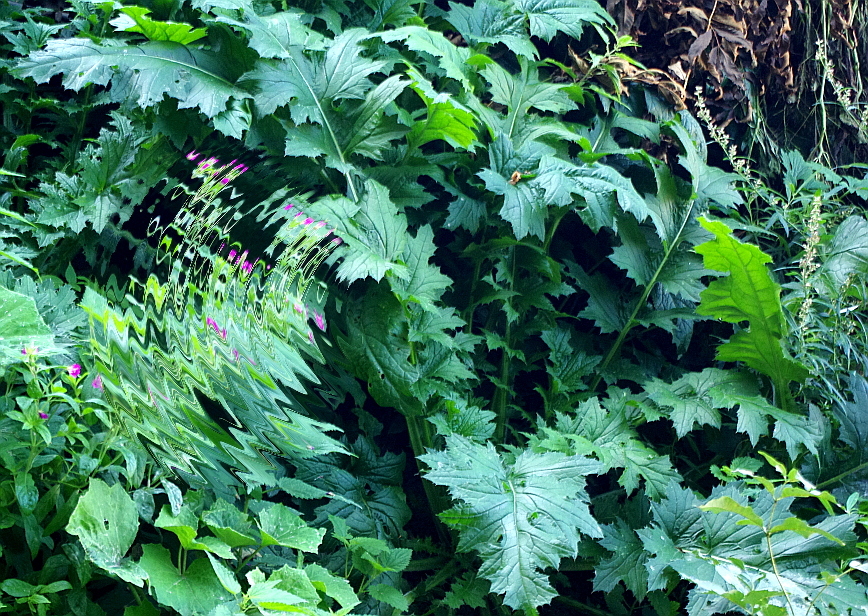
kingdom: Plantae
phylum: Tracheophyta
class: Magnoliopsida
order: Asterales
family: Asteraceae
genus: Carduus
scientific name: Carduus crispus
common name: Welted thistle
